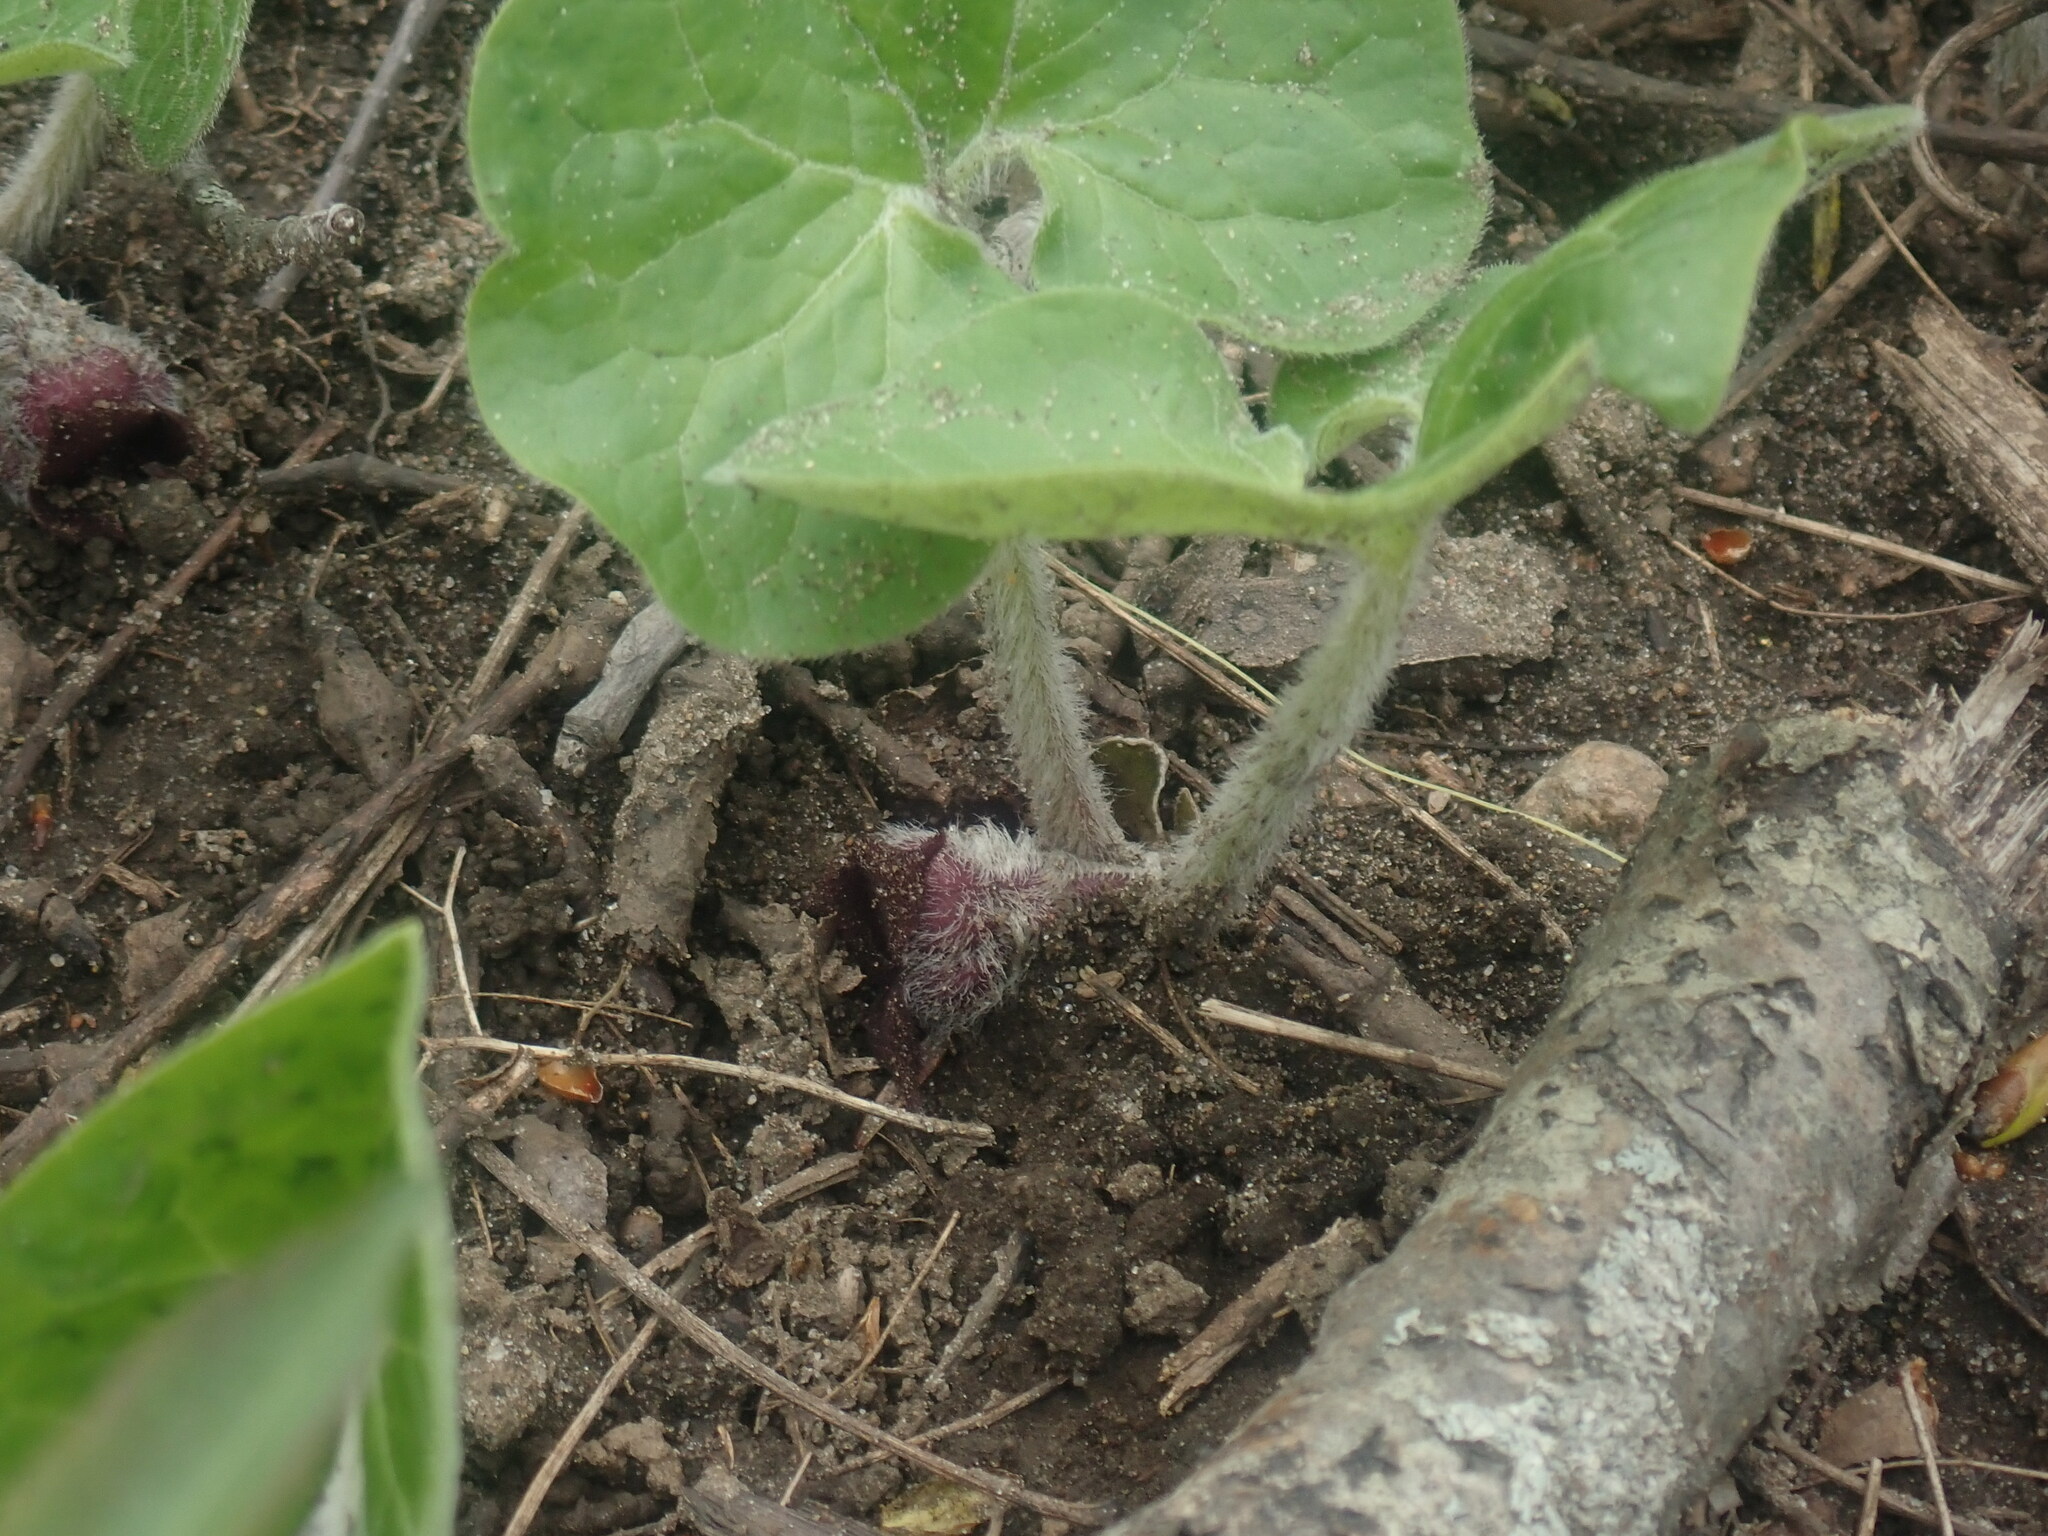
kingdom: Plantae
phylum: Tracheophyta
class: Magnoliopsida
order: Piperales
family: Aristolochiaceae
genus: Asarum
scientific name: Asarum canadense
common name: Wild ginger
